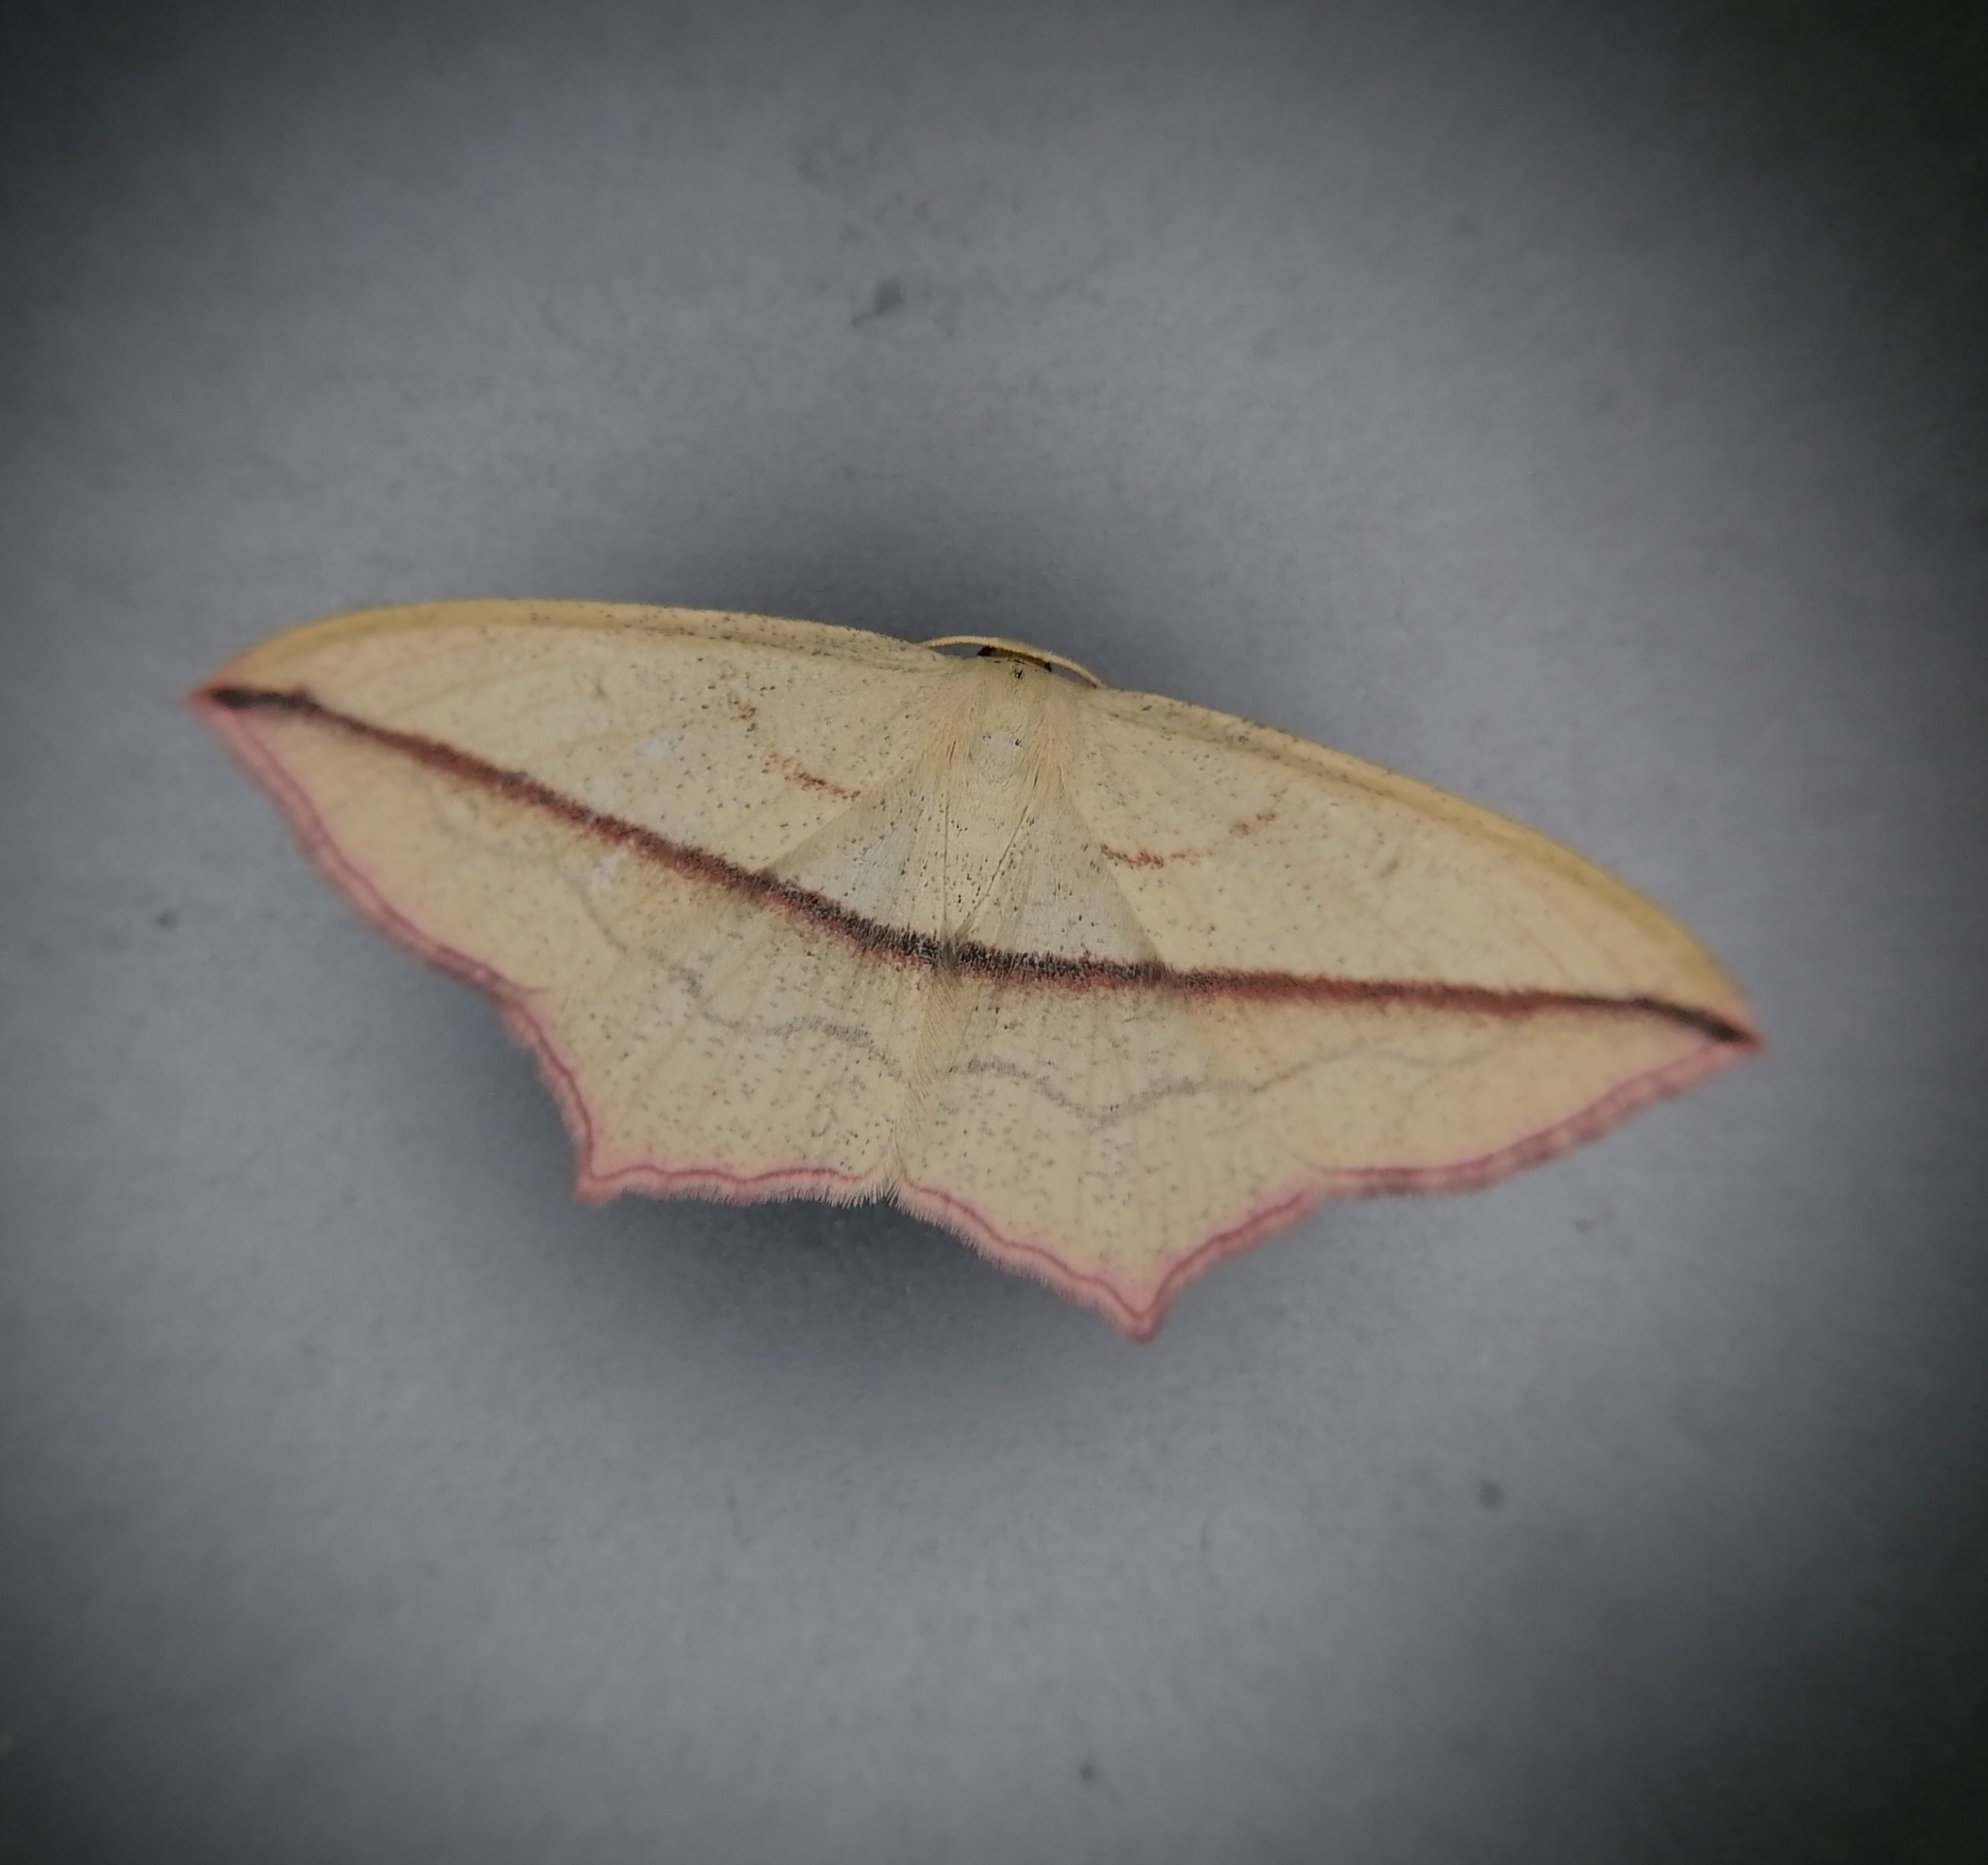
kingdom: Animalia
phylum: Arthropoda
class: Insecta
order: Lepidoptera
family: Geometridae
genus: Timandra
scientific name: Timandra comae
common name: Blood-vein
